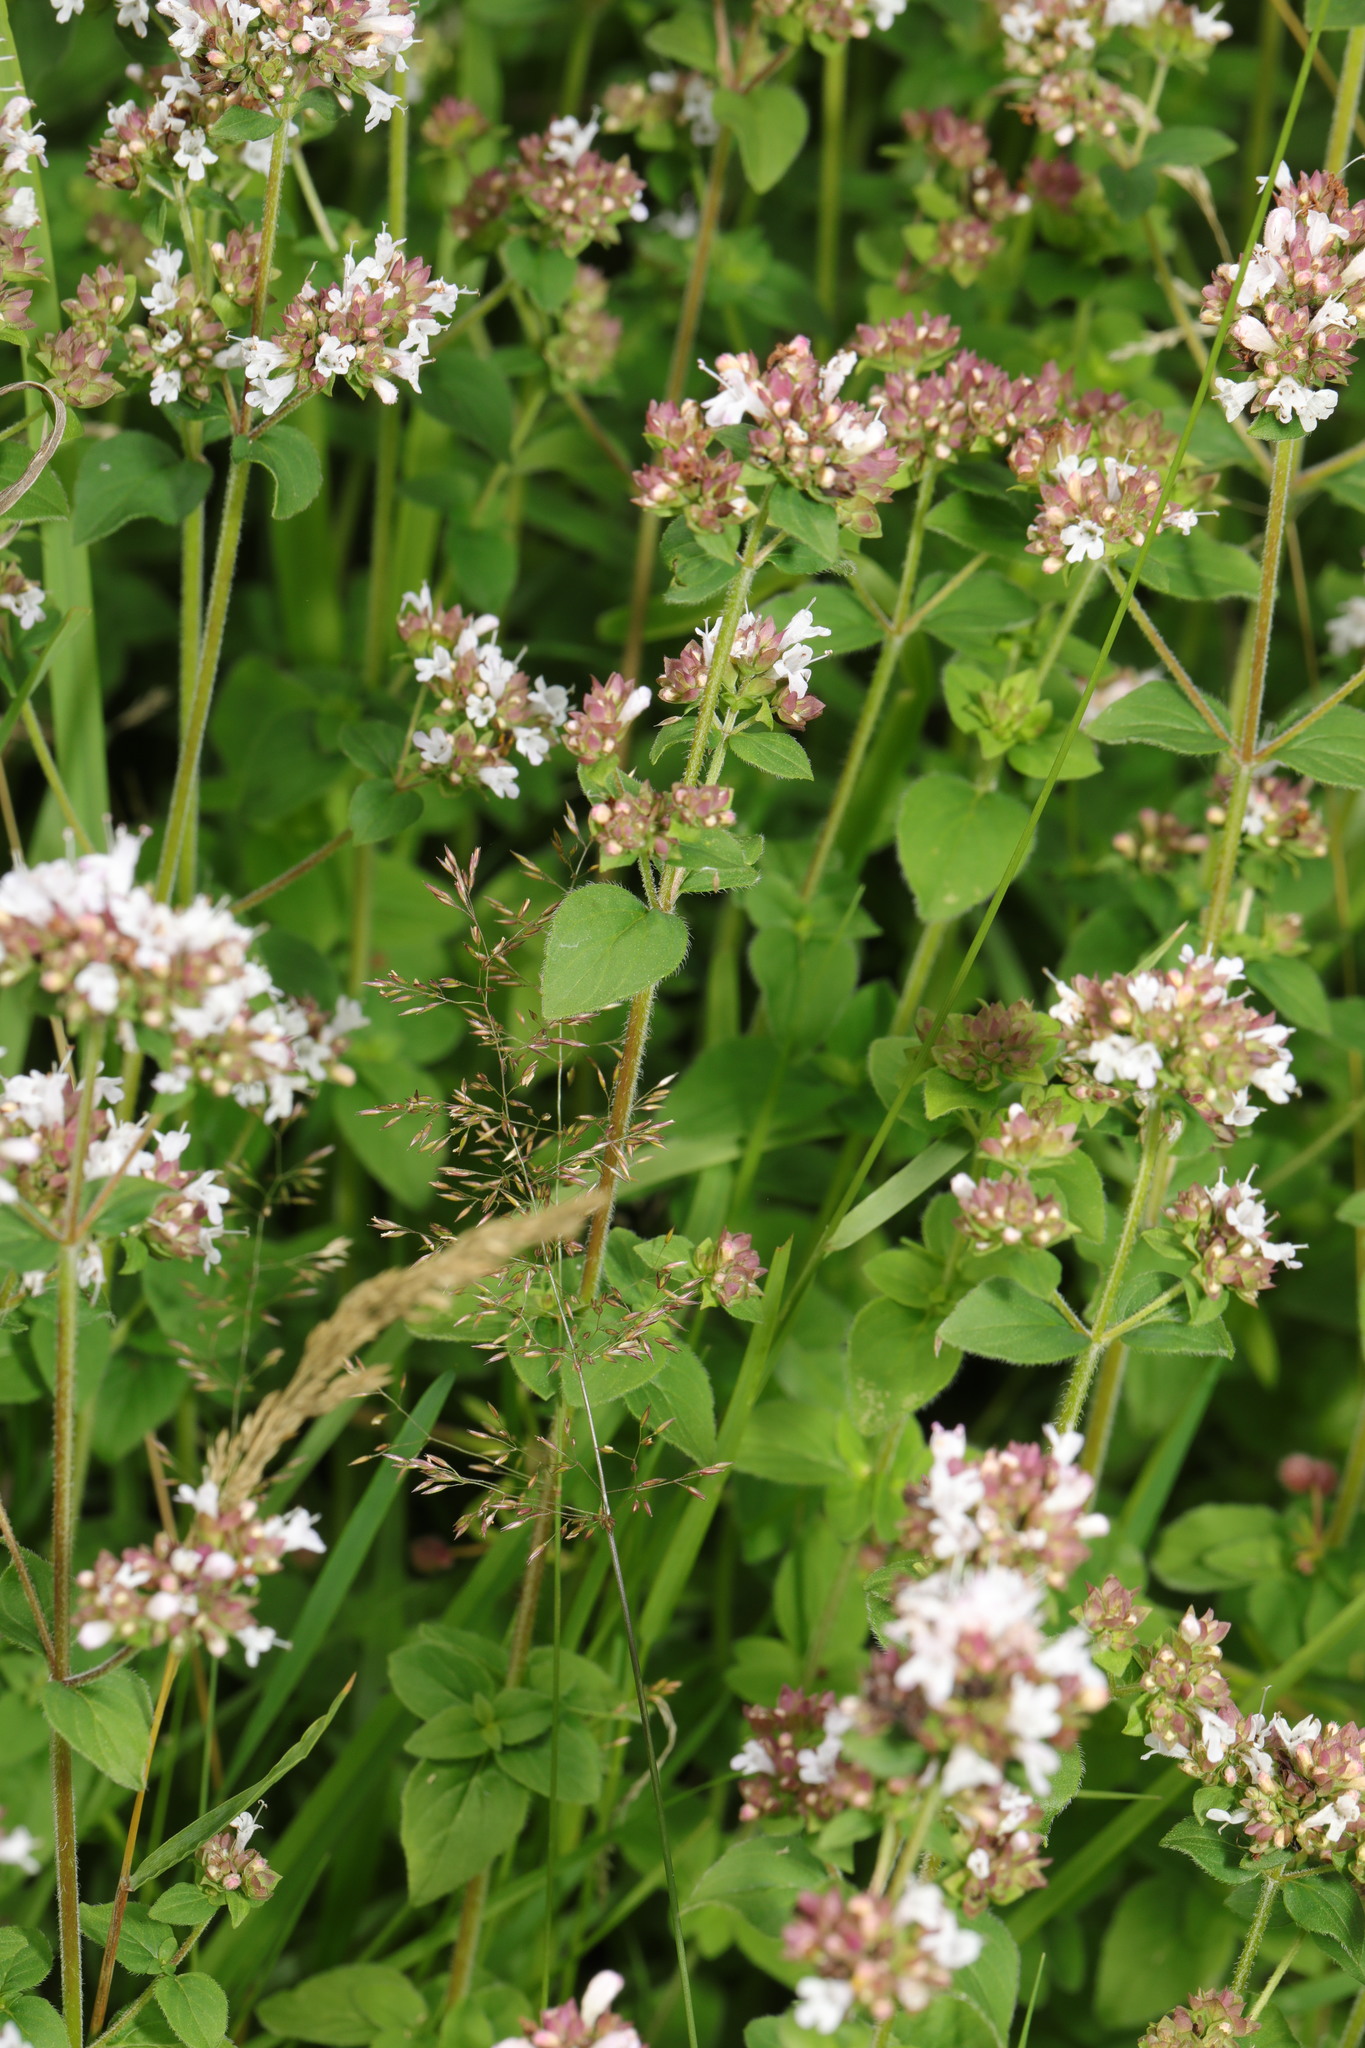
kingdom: Plantae
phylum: Tracheophyta
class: Magnoliopsida
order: Lamiales
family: Lamiaceae
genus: Origanum
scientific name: Origanum vulgare
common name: Wild marjoram
